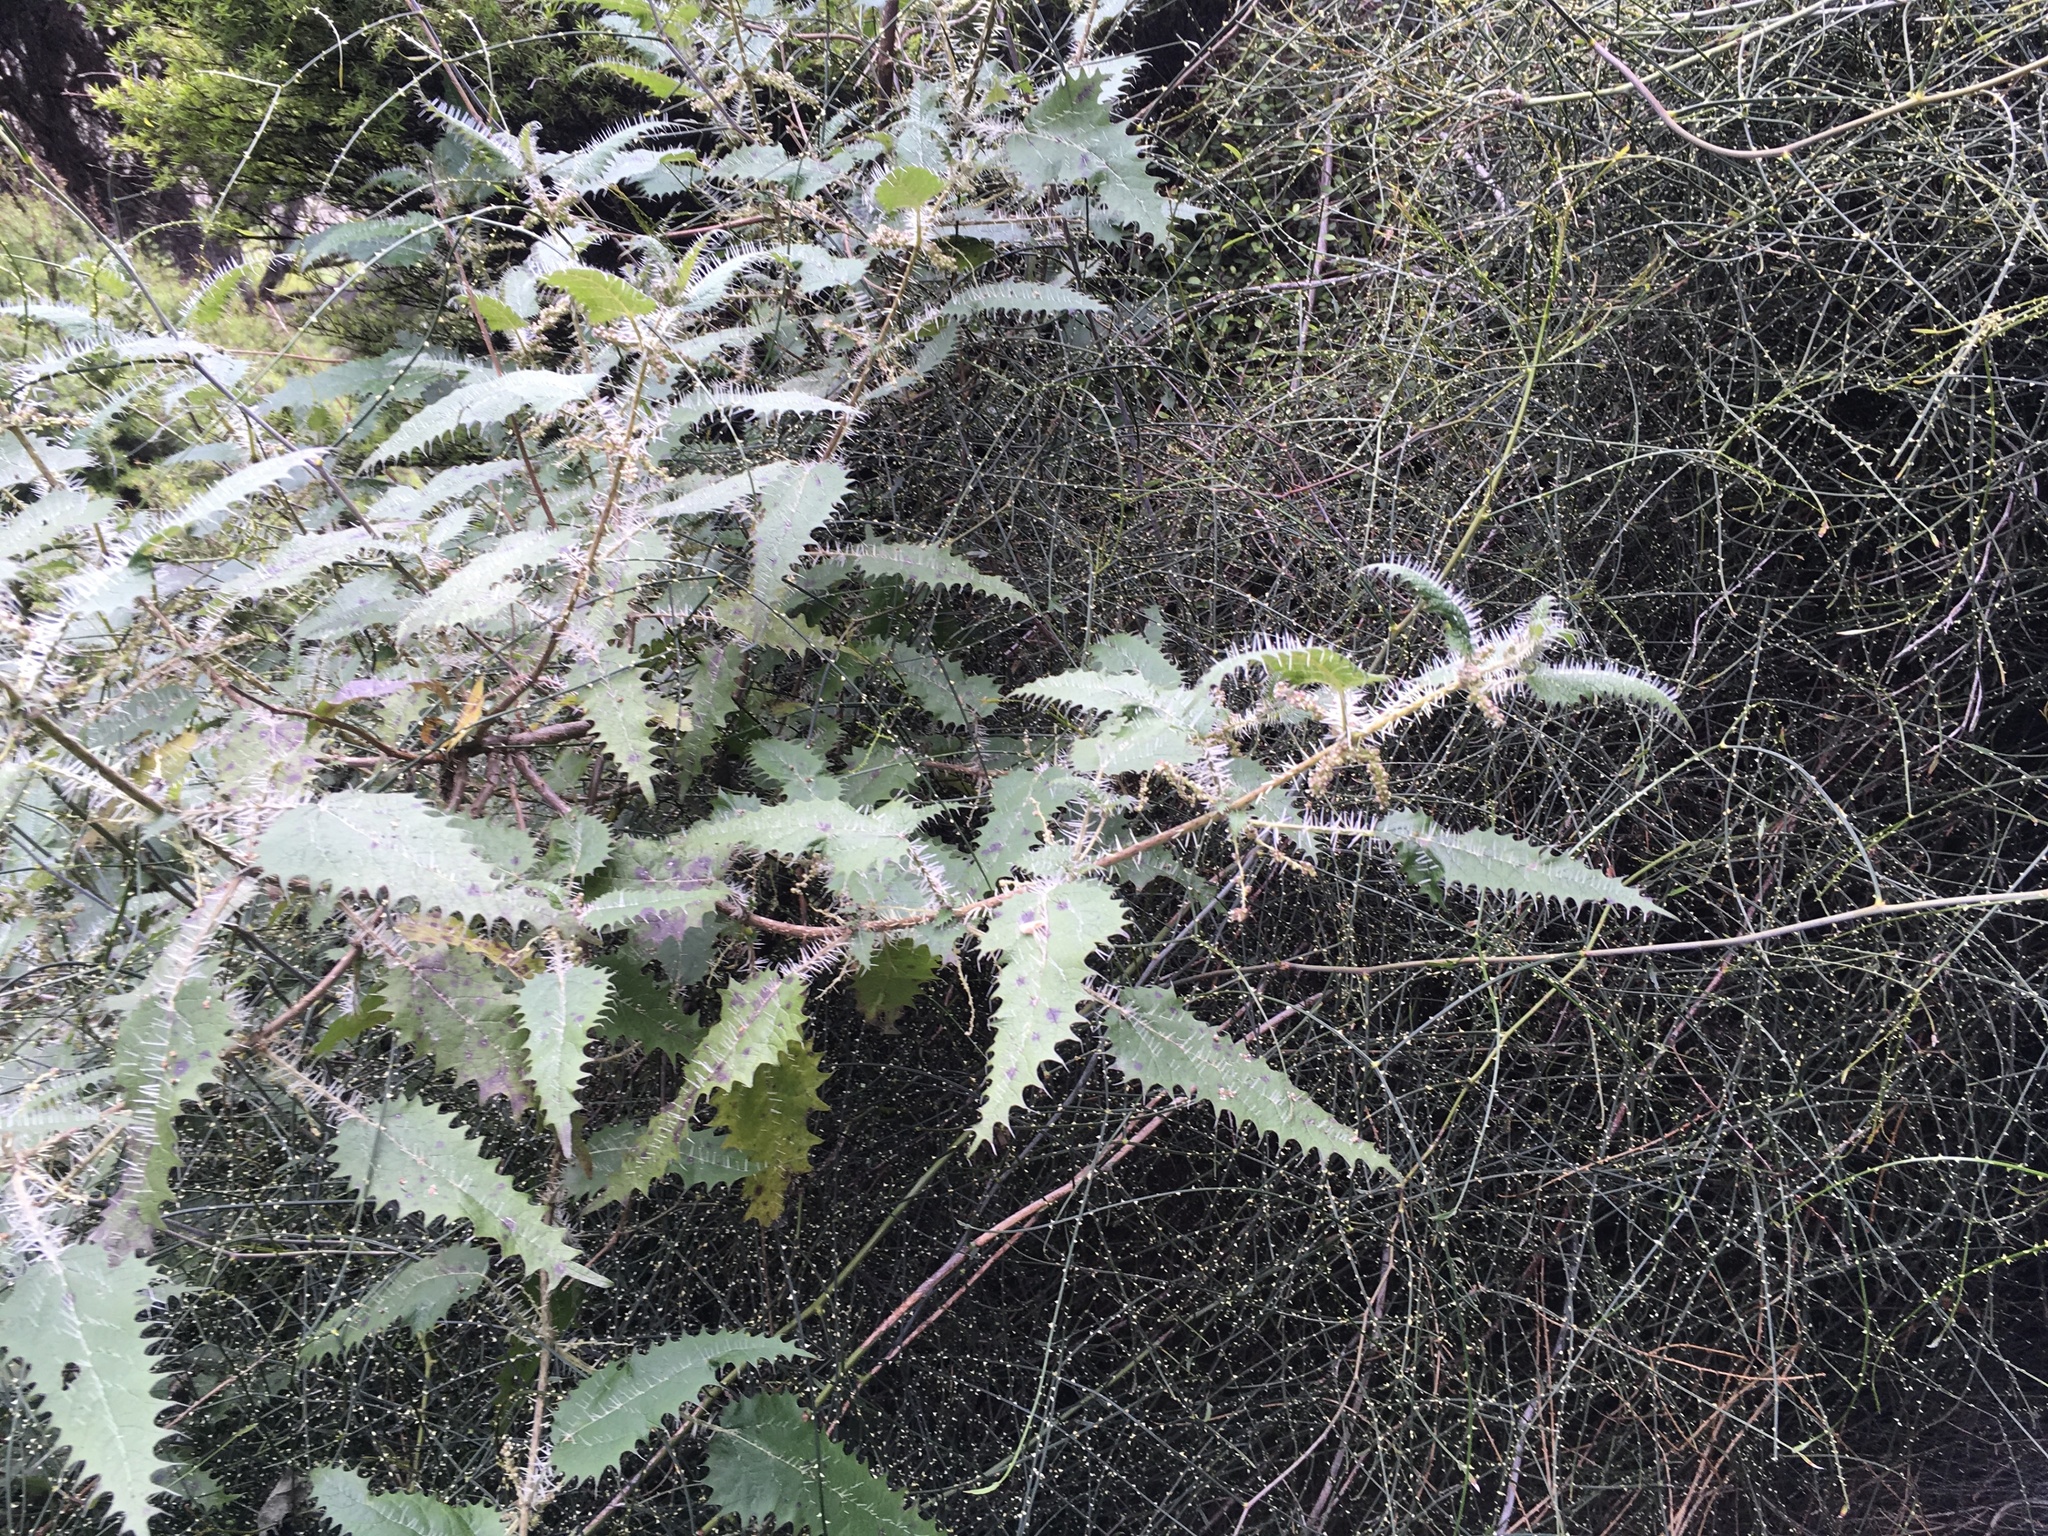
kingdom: Plantae
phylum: Tracheophyta
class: Magnoliopsida
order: Rosales
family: Urticaceae
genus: Urtica
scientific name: Urtica ferox
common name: Tree nettle
